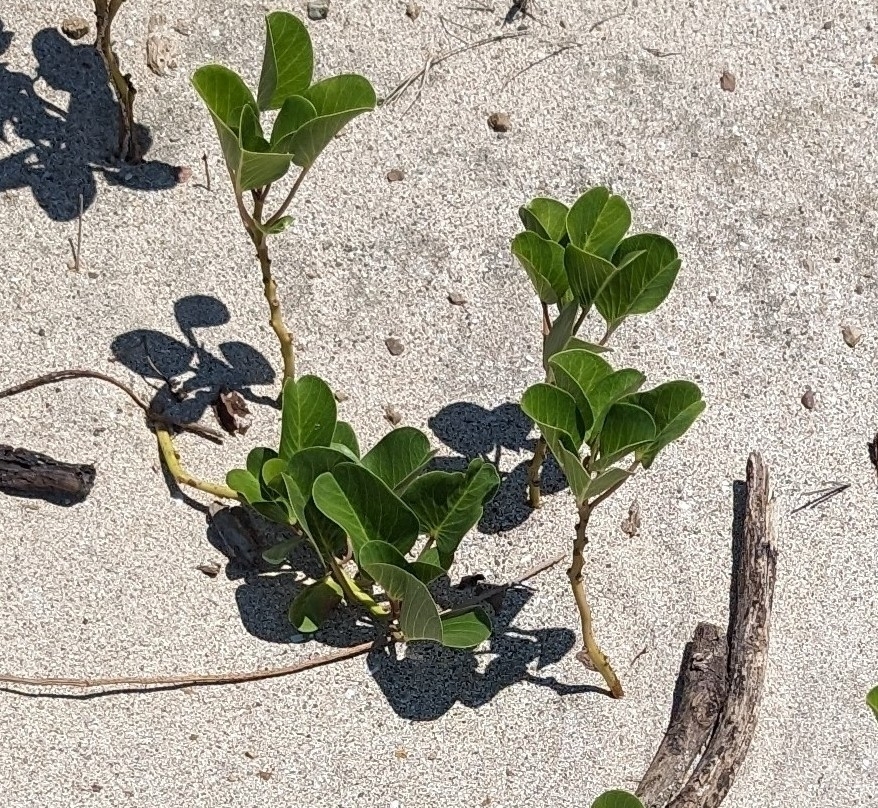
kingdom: Plantae
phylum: Tracheophyta
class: Magnoliopsida
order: Solanales
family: Convolvulaceae
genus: Ipomoea
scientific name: Ipomoea pes-caprae
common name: Beach morning glory
